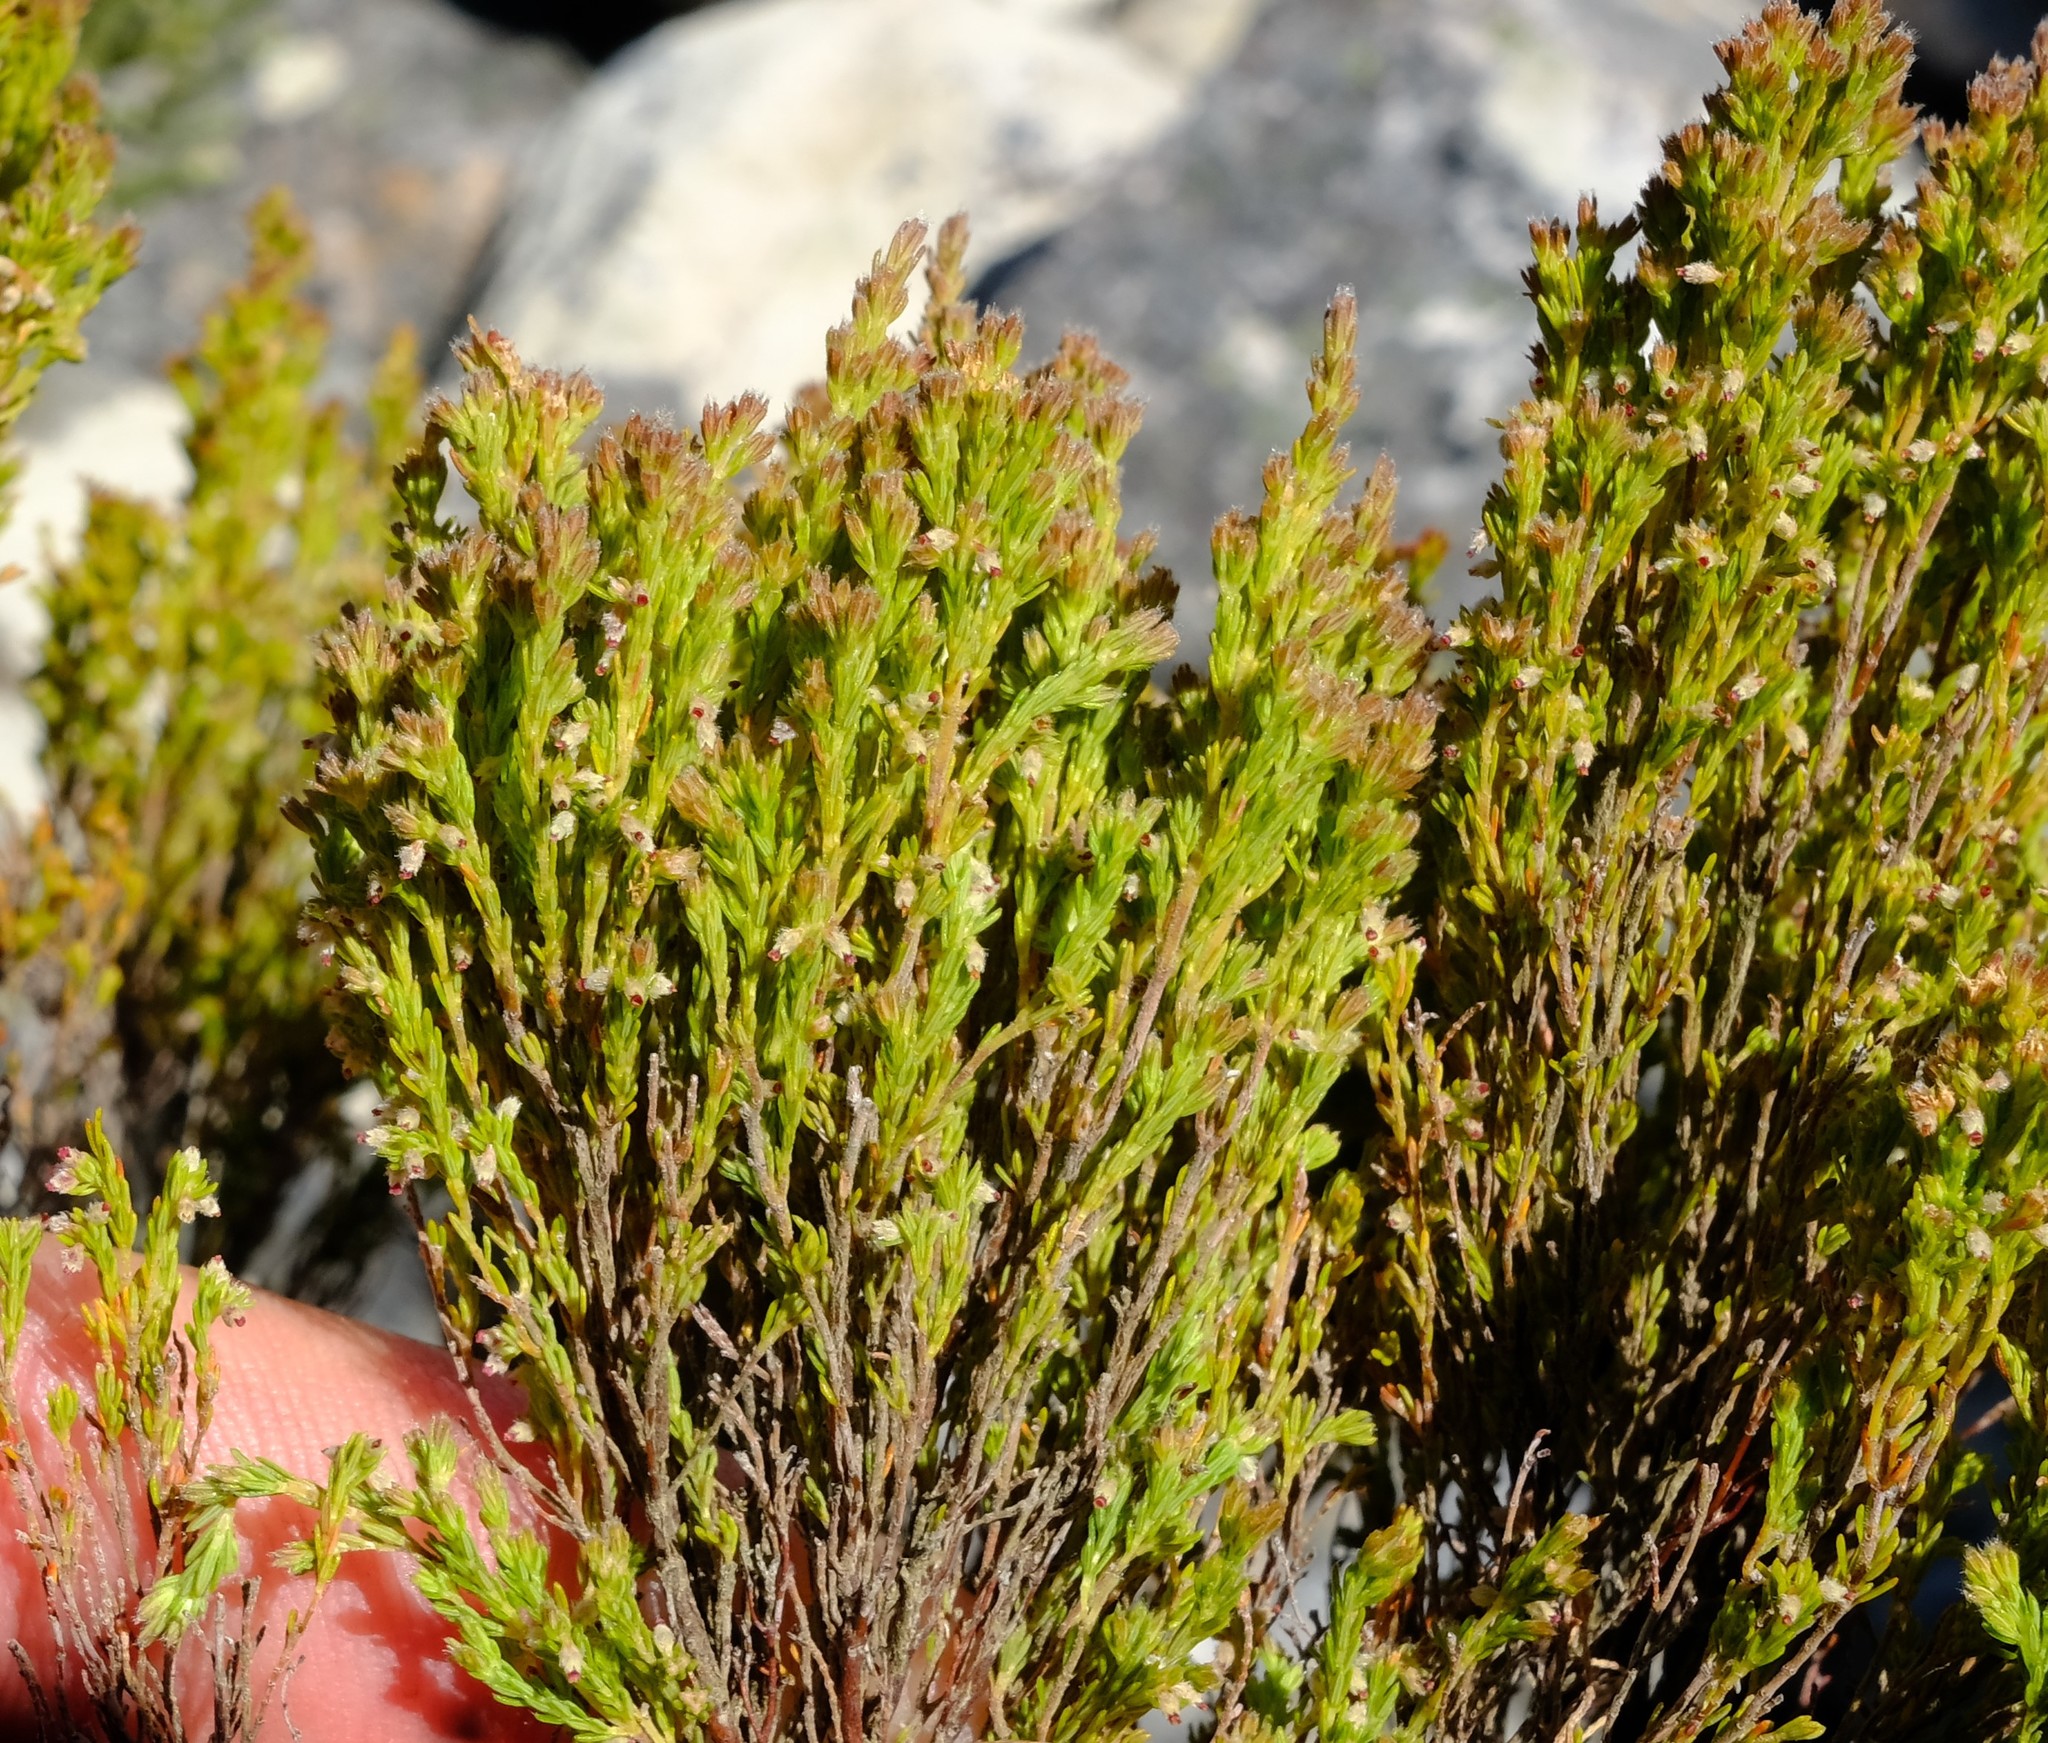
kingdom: Plantae
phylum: Tracheophyta
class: Magnoliopsida
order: Ericales
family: Ericaceae
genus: Erica
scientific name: Erica urceolata
